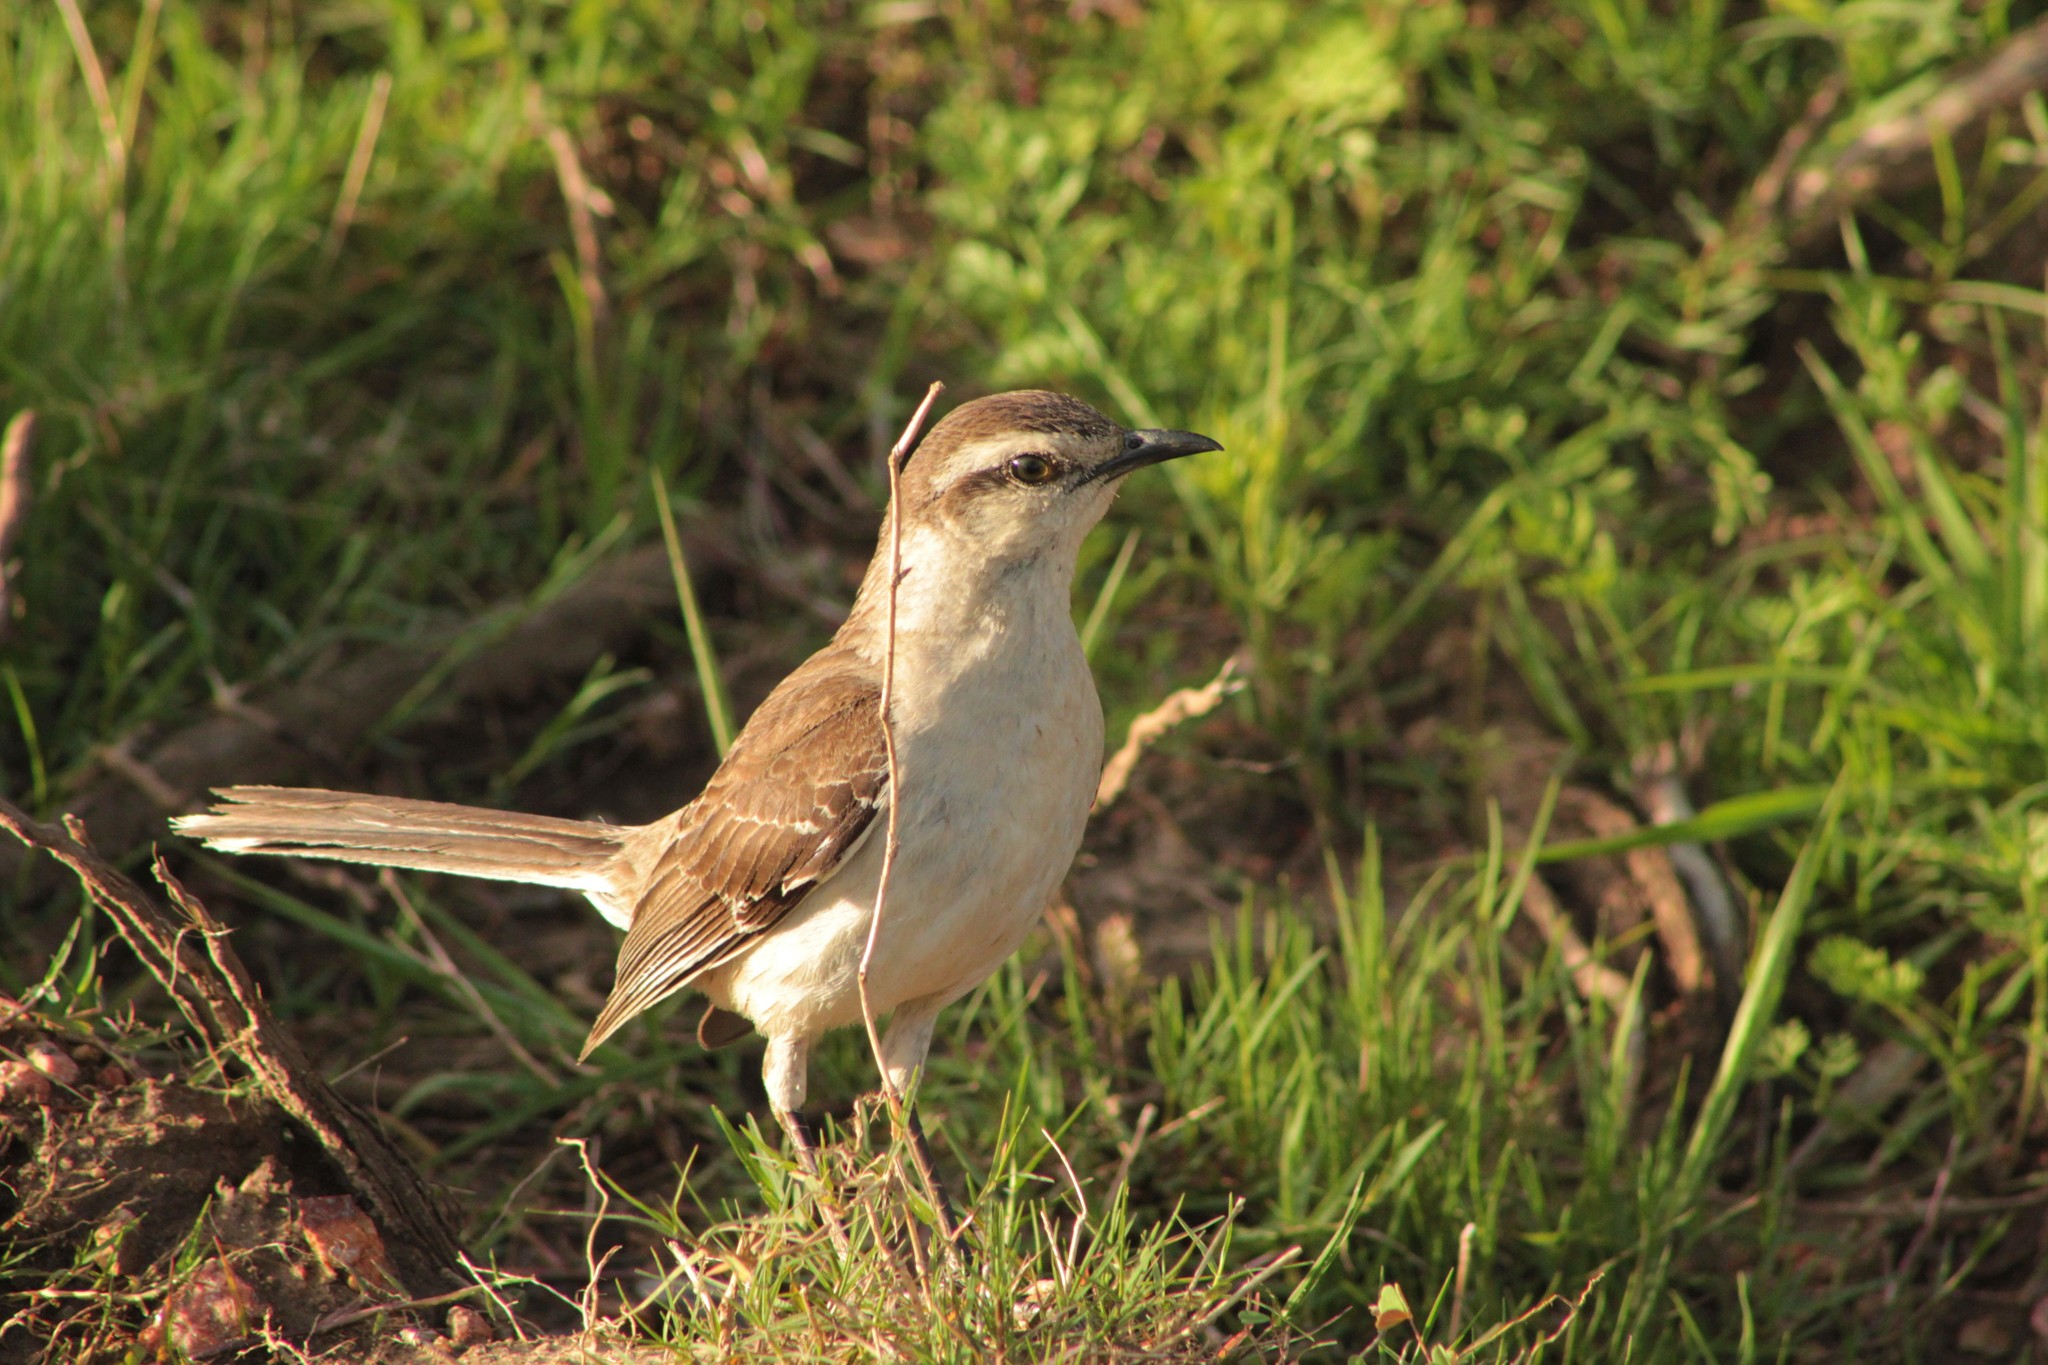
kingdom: Animalia
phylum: Chordata
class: Aves
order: Passeriformes
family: Mimidae
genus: Mimus
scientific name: Mimus saturninus
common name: Chalk-browed mockingbird
